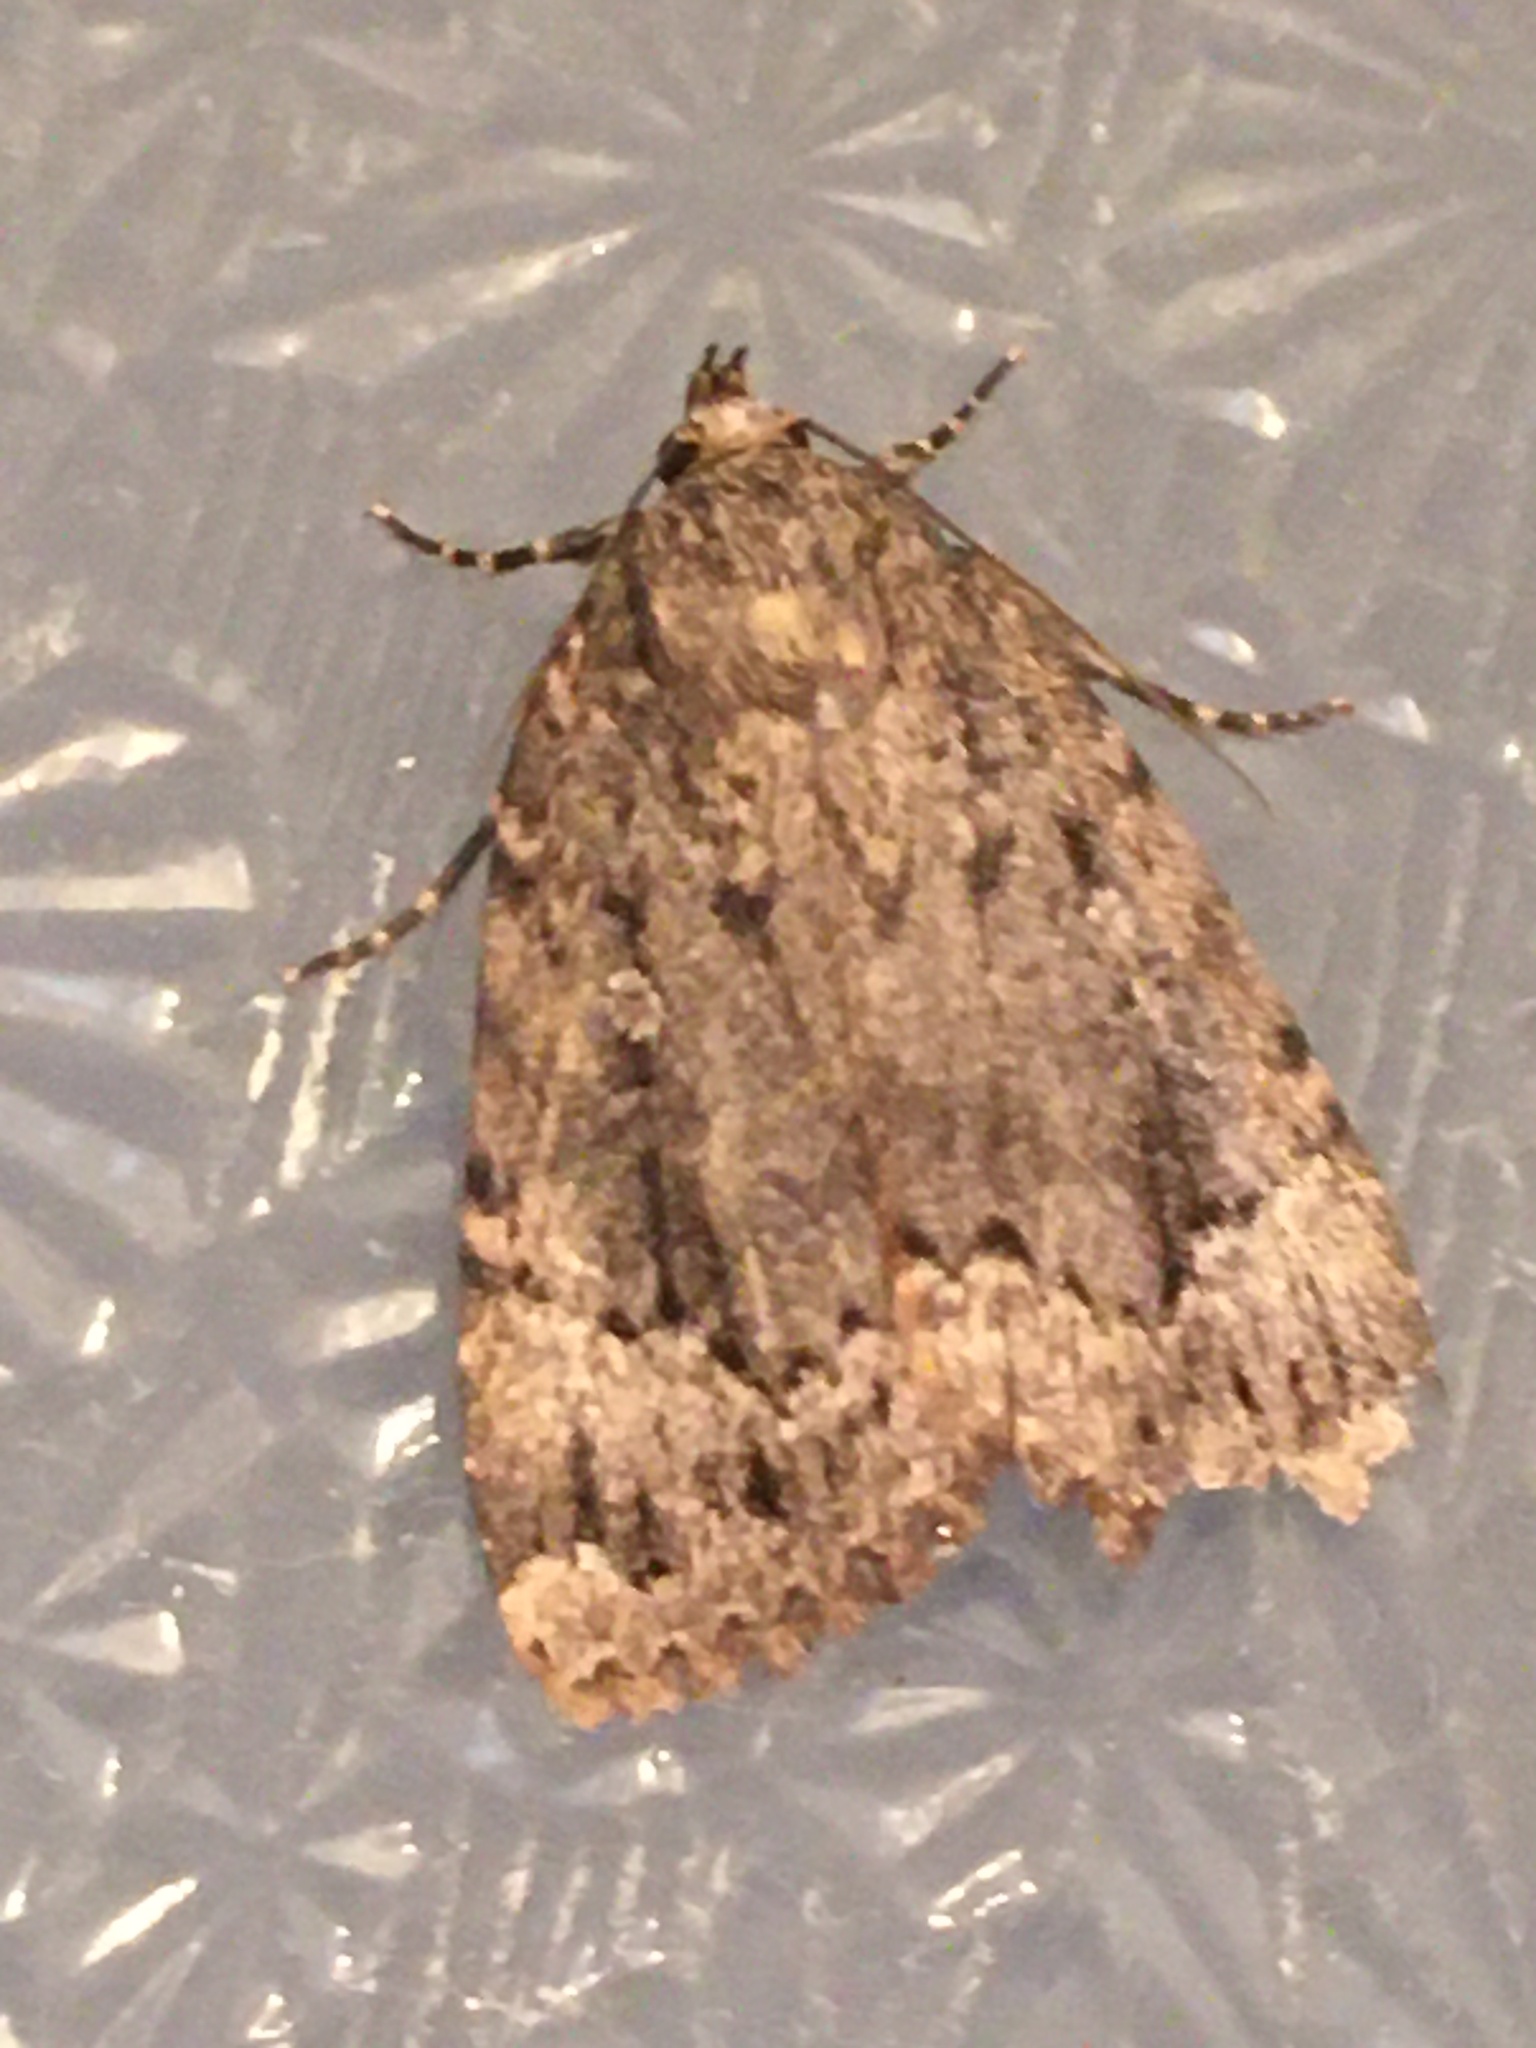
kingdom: Animalia
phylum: Arthropoda
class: Insecta
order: Lepidoptera
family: Noctuidae
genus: Amphipyra
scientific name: Amphipyra pyramidoides
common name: American copper underwing
